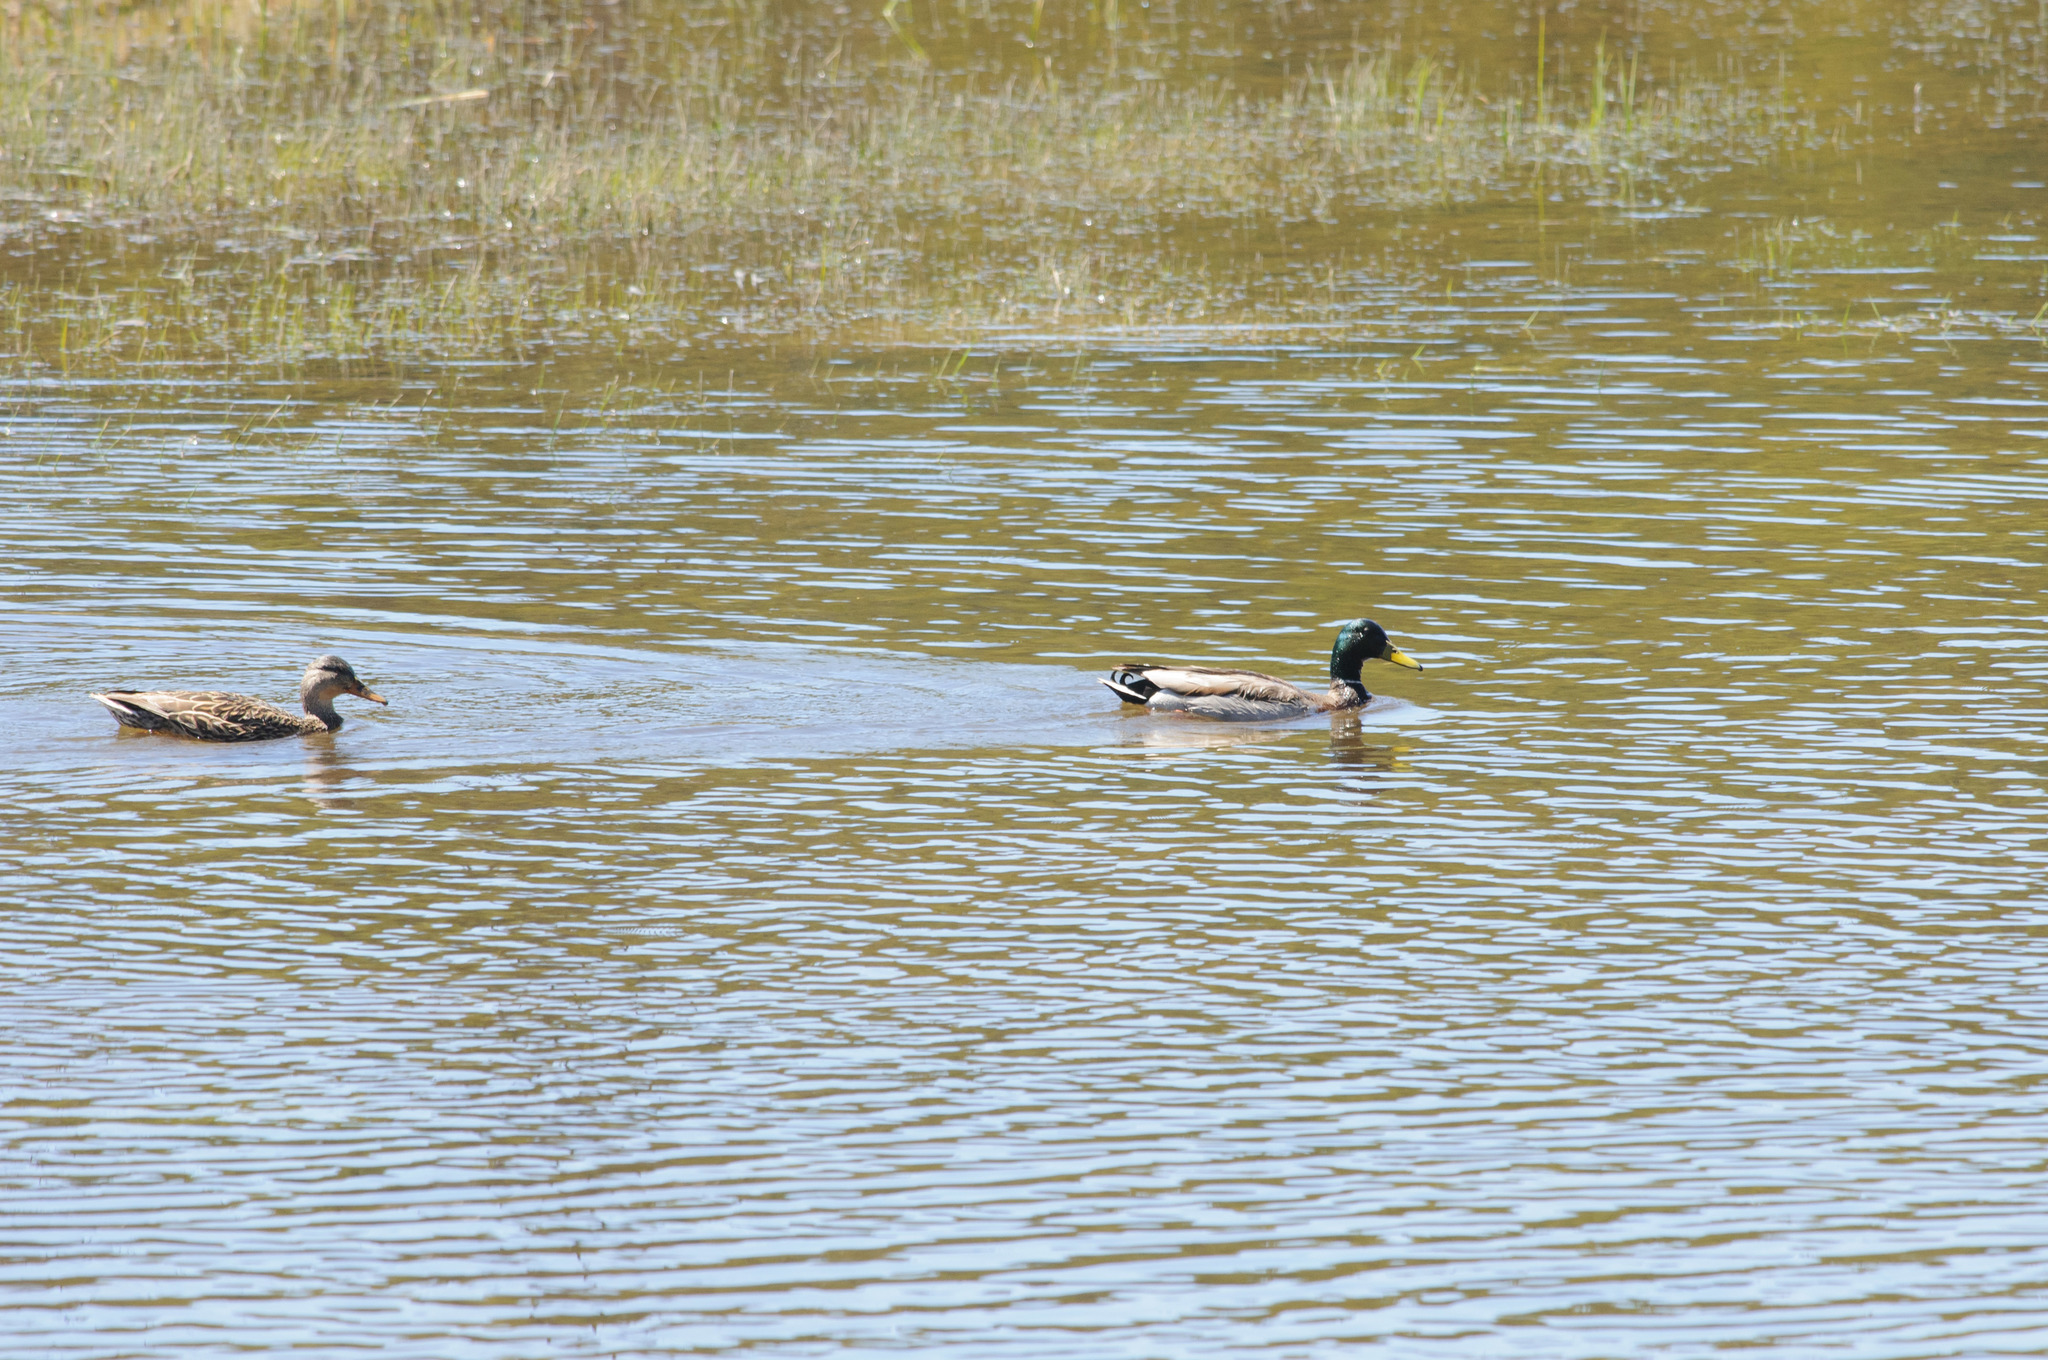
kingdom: Animalia
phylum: Chordata
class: Aves
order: Anseriformes
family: Anatidae
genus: Anas
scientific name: Anas platyrhynchos
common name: Mallard
